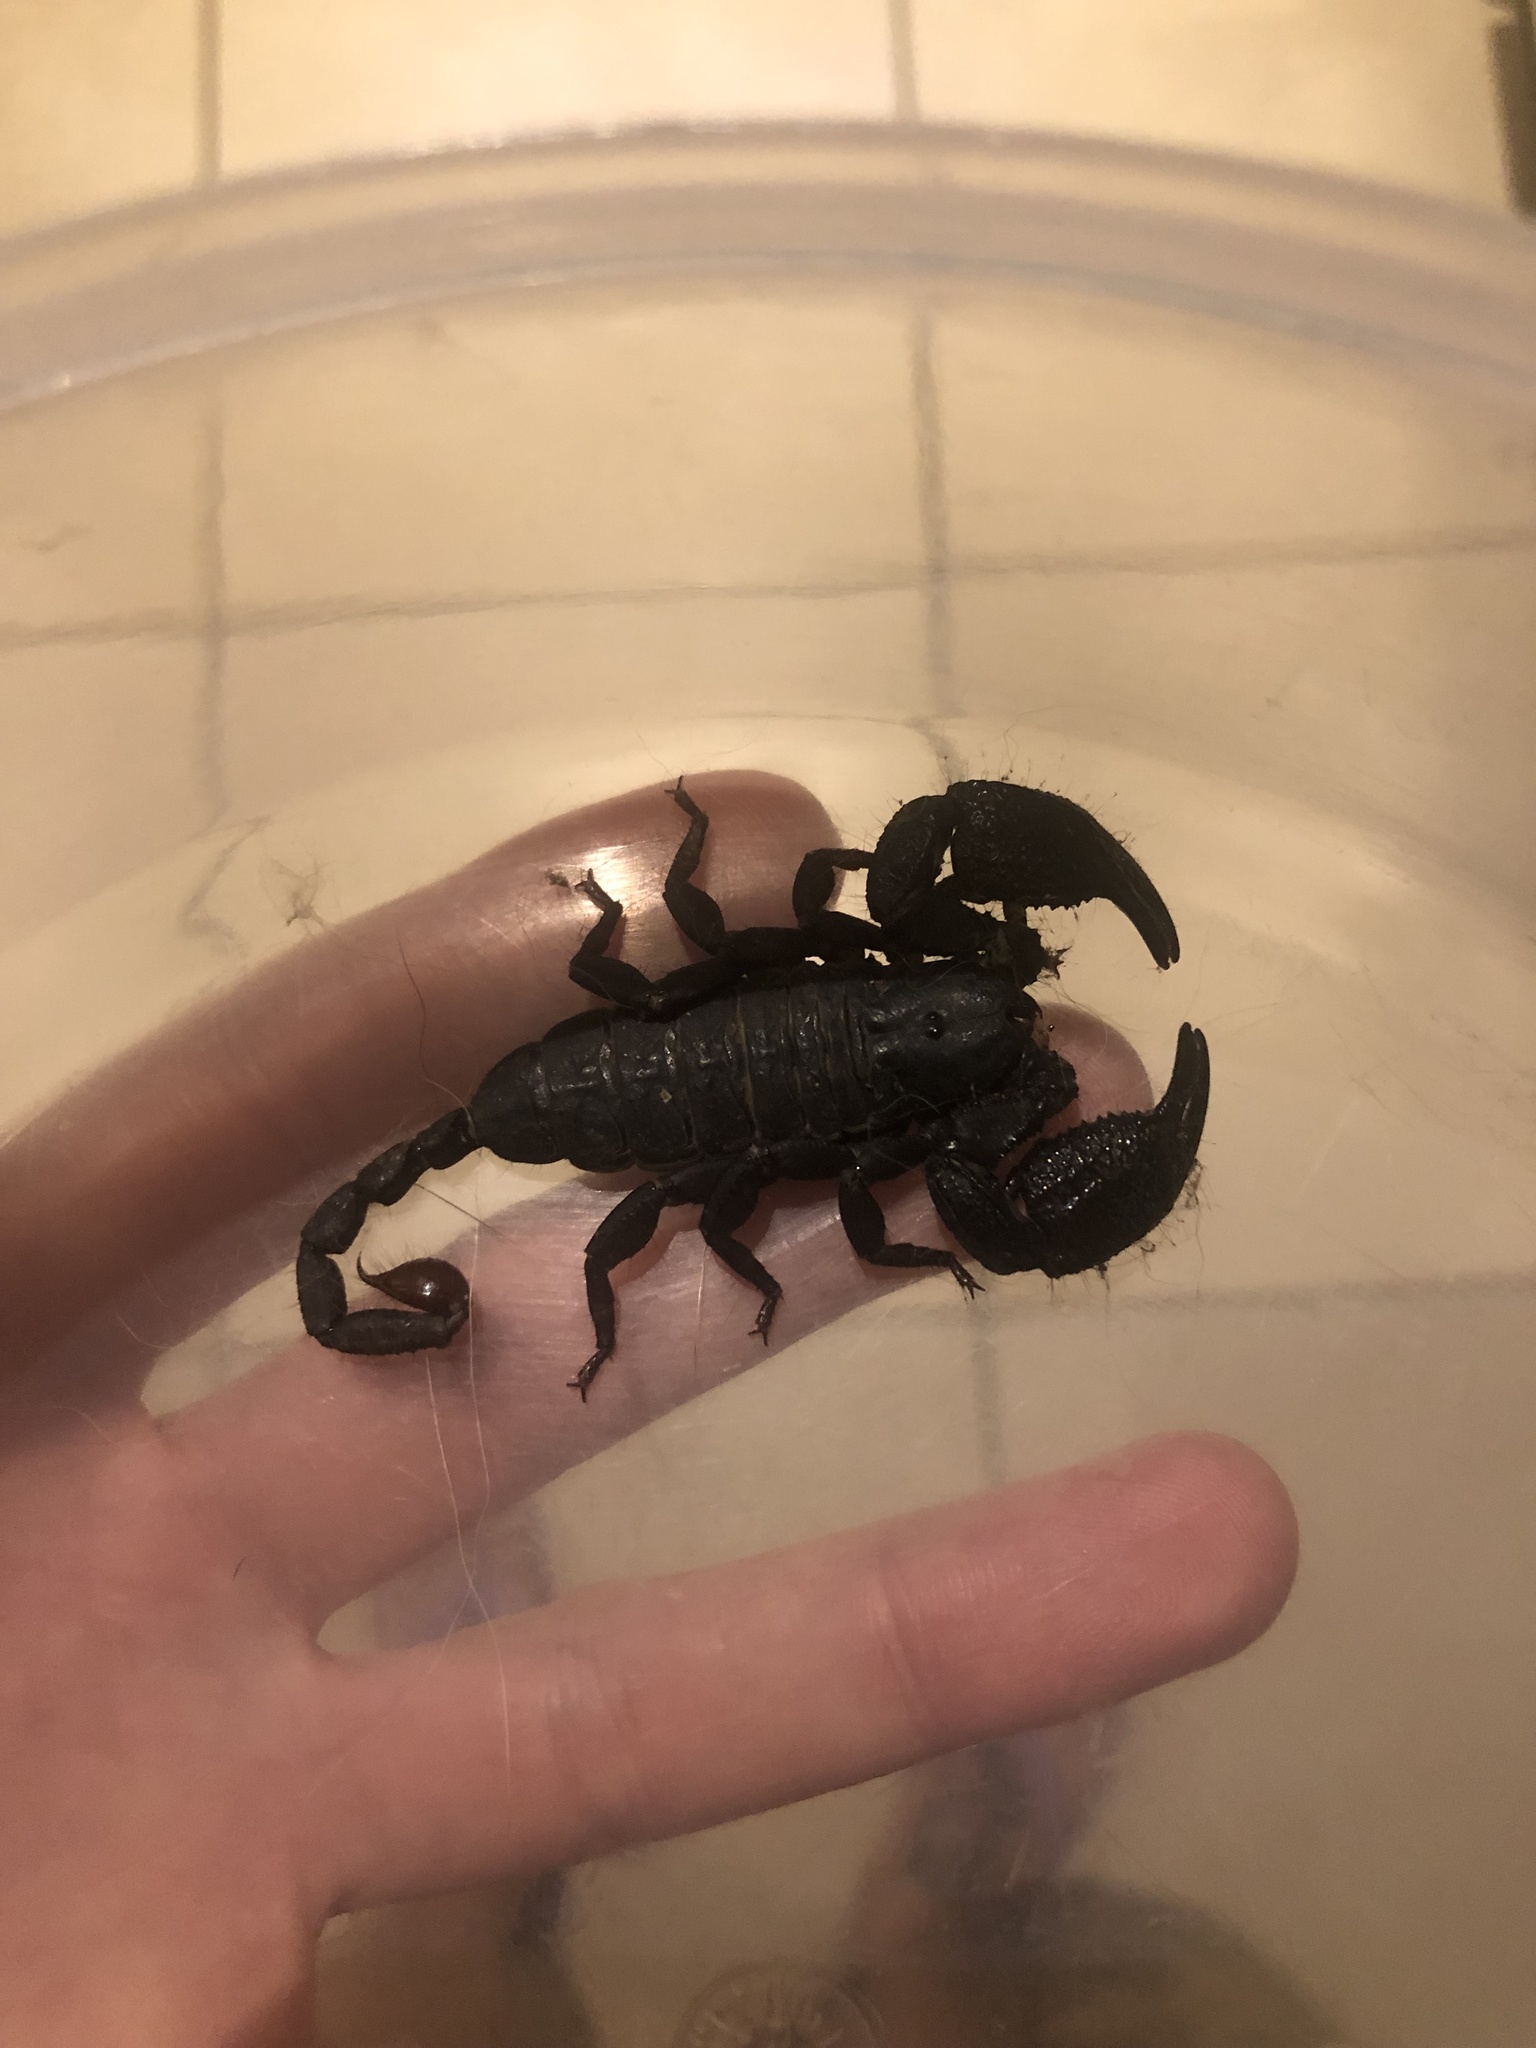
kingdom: Animalia
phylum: Arthropoda
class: Arachnida
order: Scorpiones
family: Hormuridae
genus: Opisthacanthus
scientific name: Opisthacanthus validus
